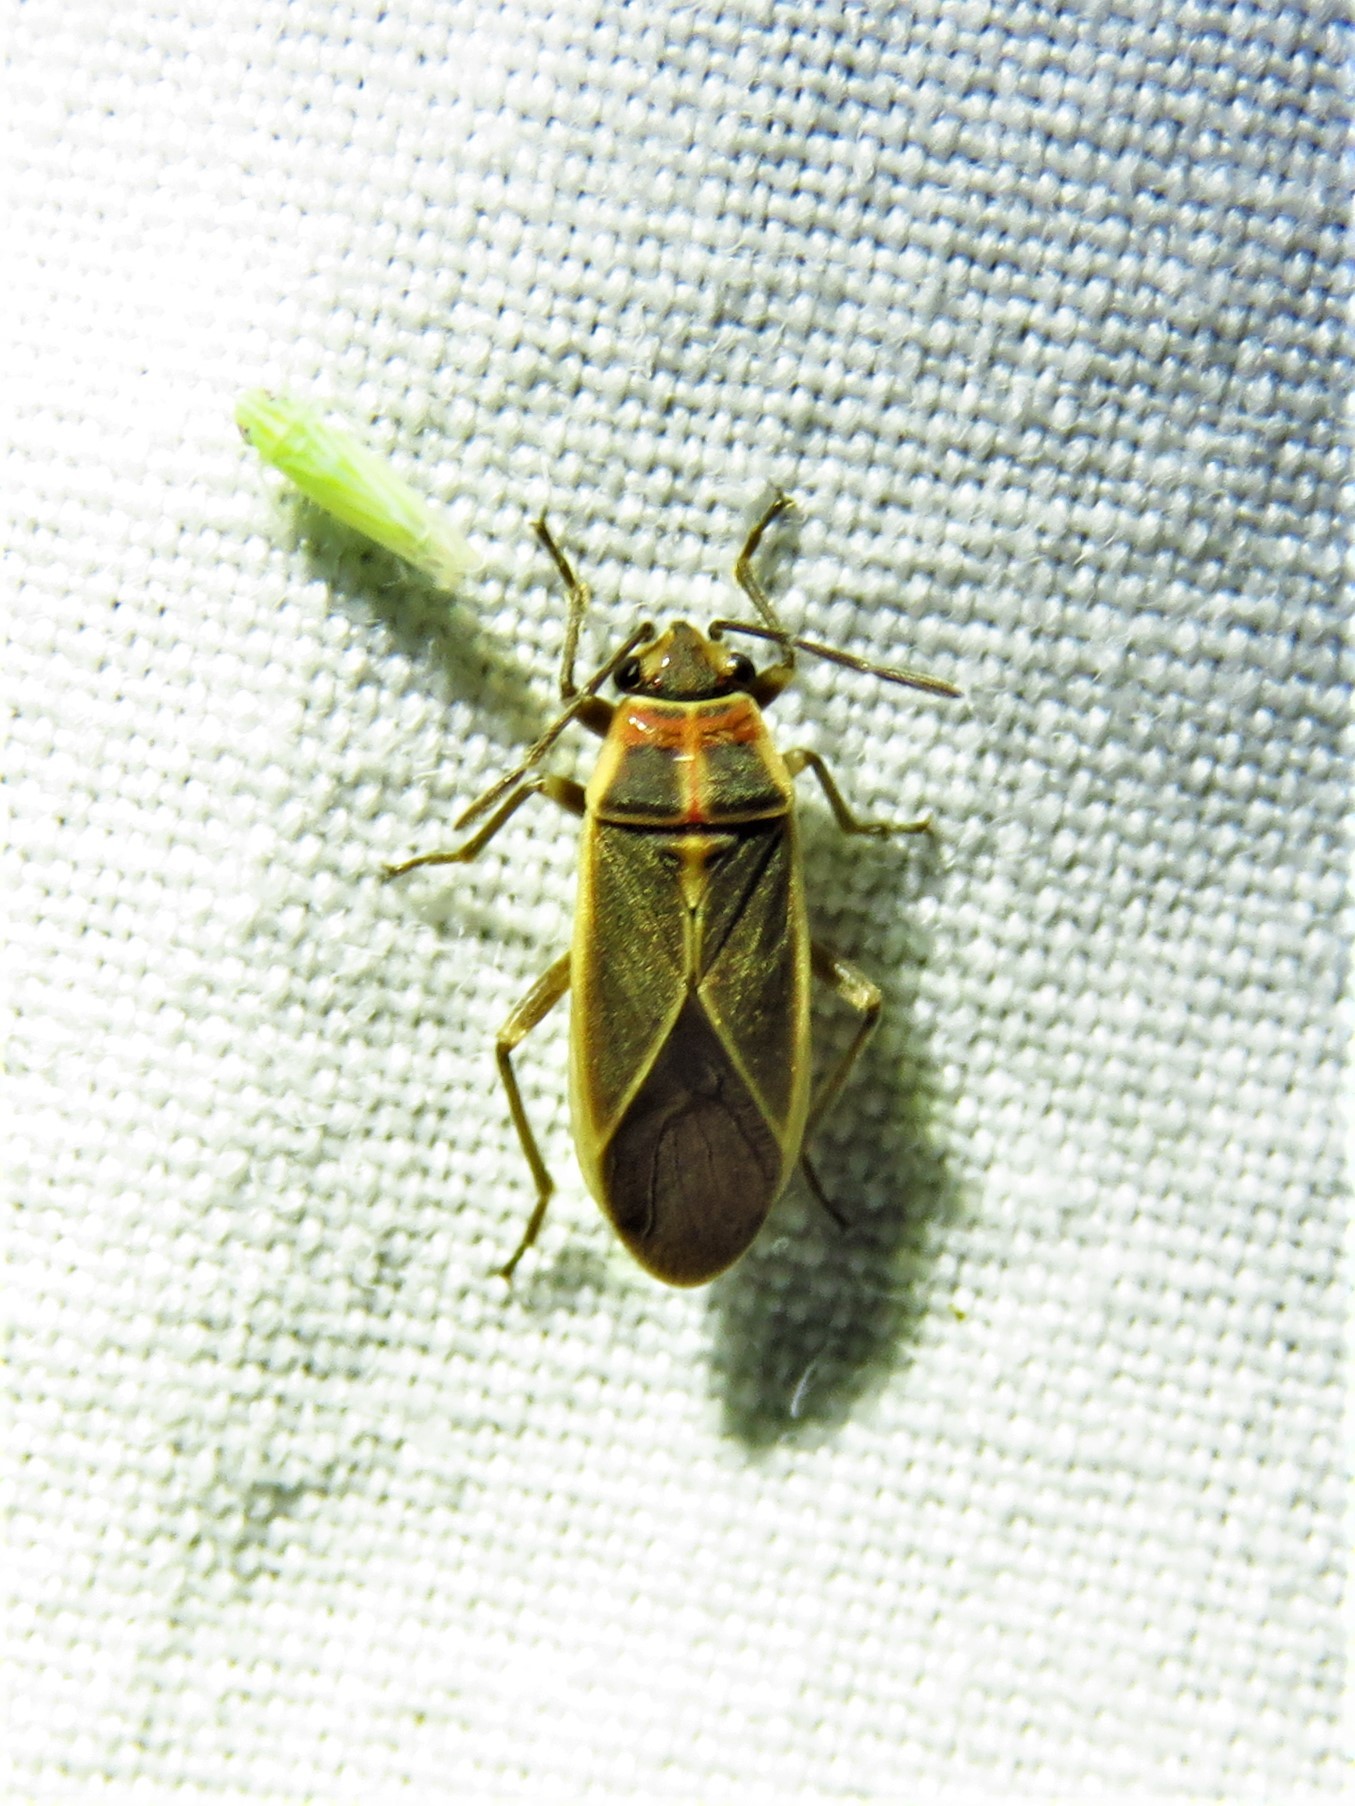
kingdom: Animalia
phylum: Arthropoda
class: Insecta
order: Hemiptera
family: Lygaeidae
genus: Ochrimnus
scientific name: Ochrimnus mimulus
